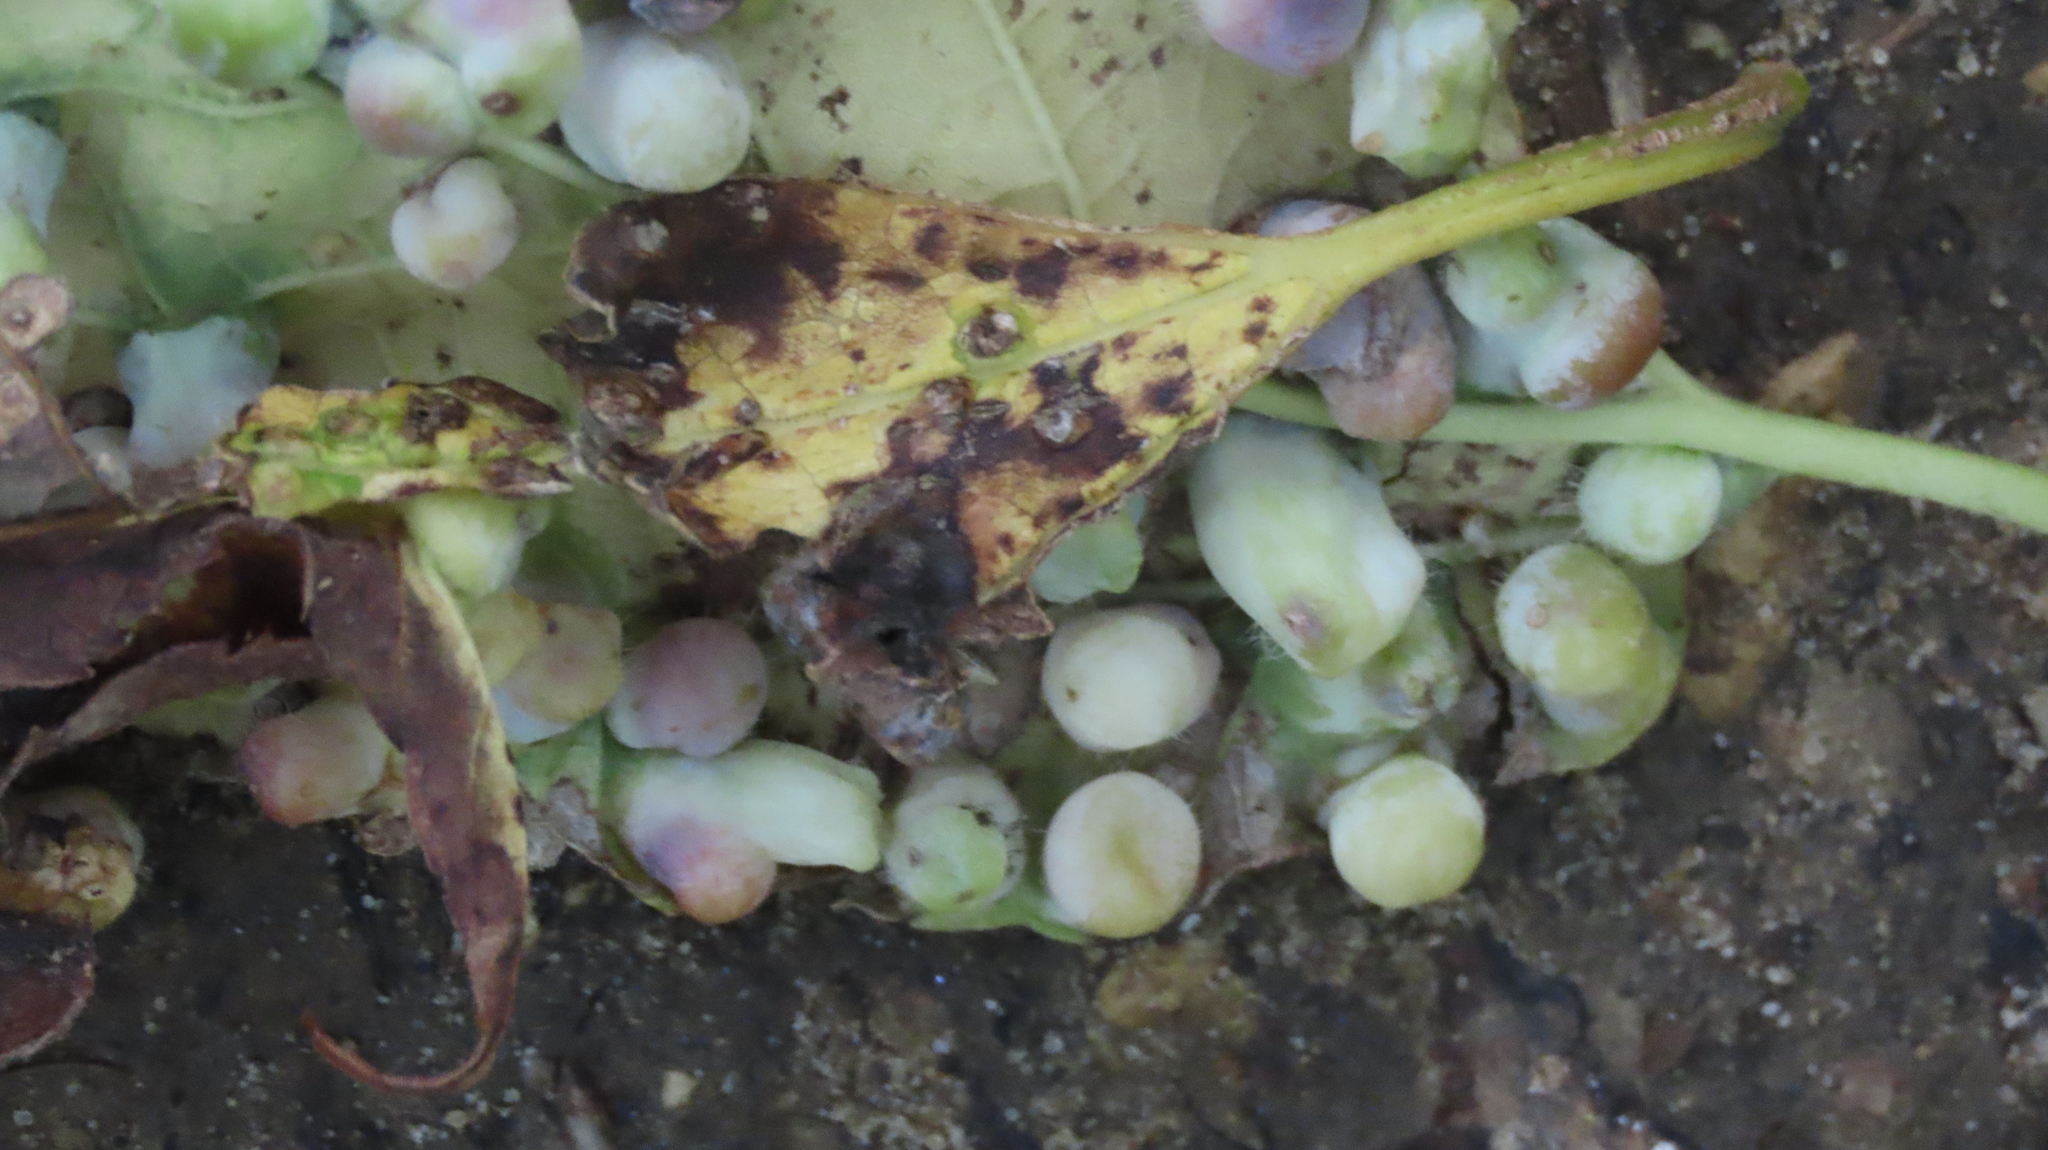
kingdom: Animalia
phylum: Arthropoda
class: Insecta
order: Hemiptera
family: Aphalaridae
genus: Pachypsylla
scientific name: Pachypsylla celtidismamma
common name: Hackberry nipplegall psyllid
